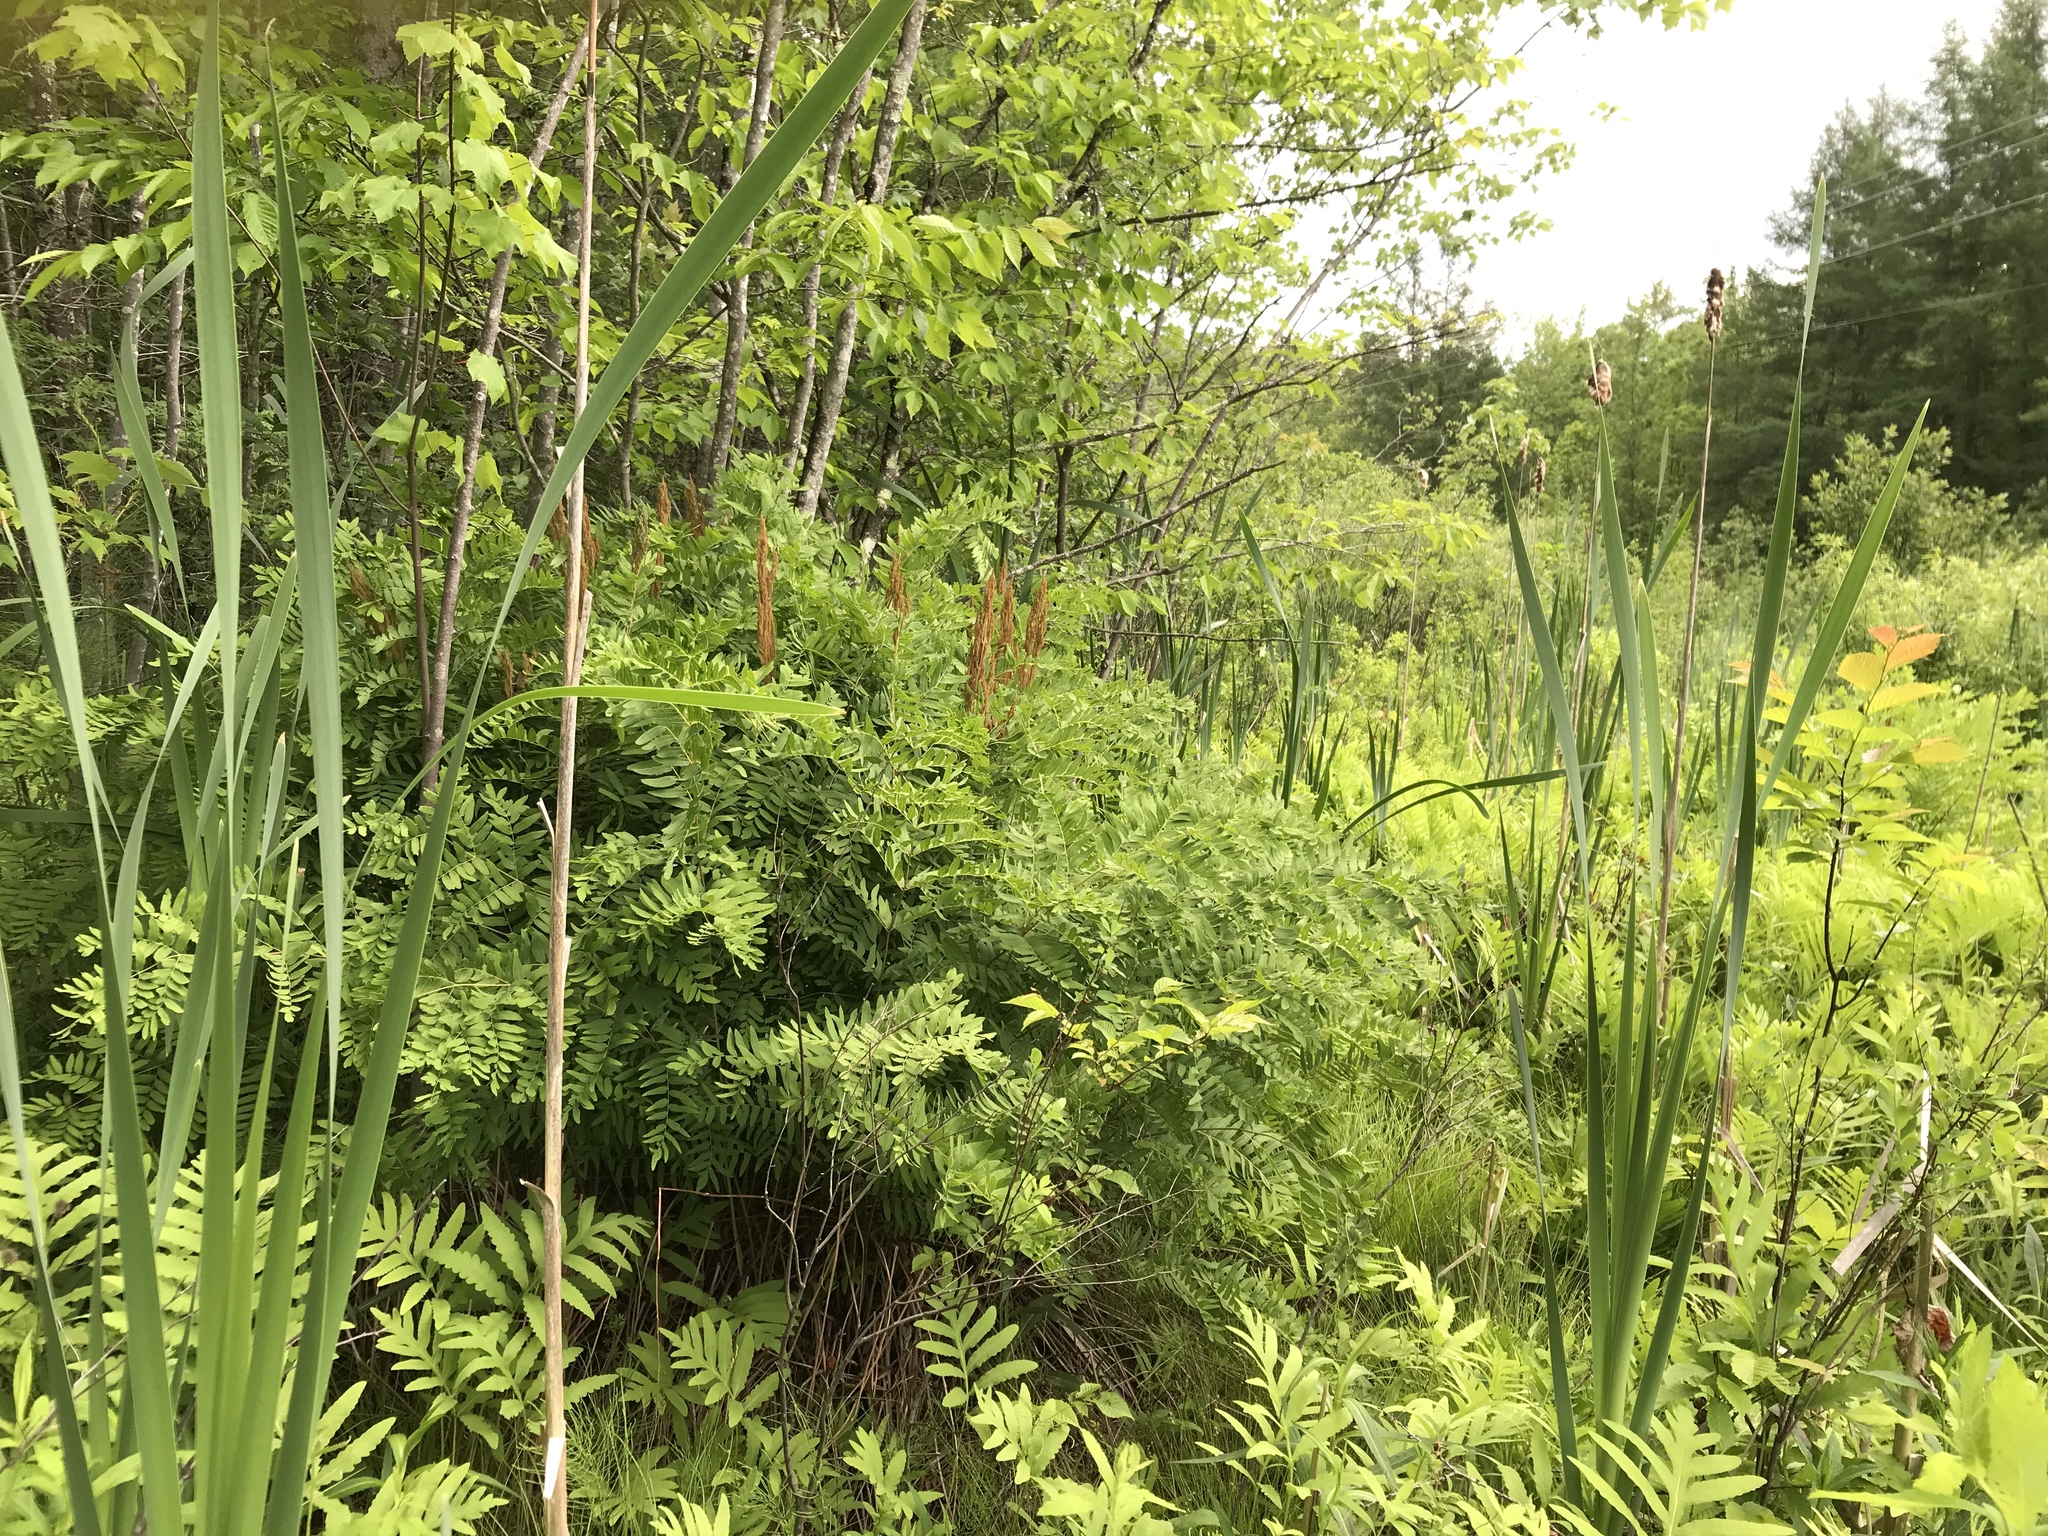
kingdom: Plantae
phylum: Tracheophyta
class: Polypodiopsida
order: Osmundales
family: Osmundaceae
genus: Osmunda
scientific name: Osmunda spectabilis
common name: American royal fern
